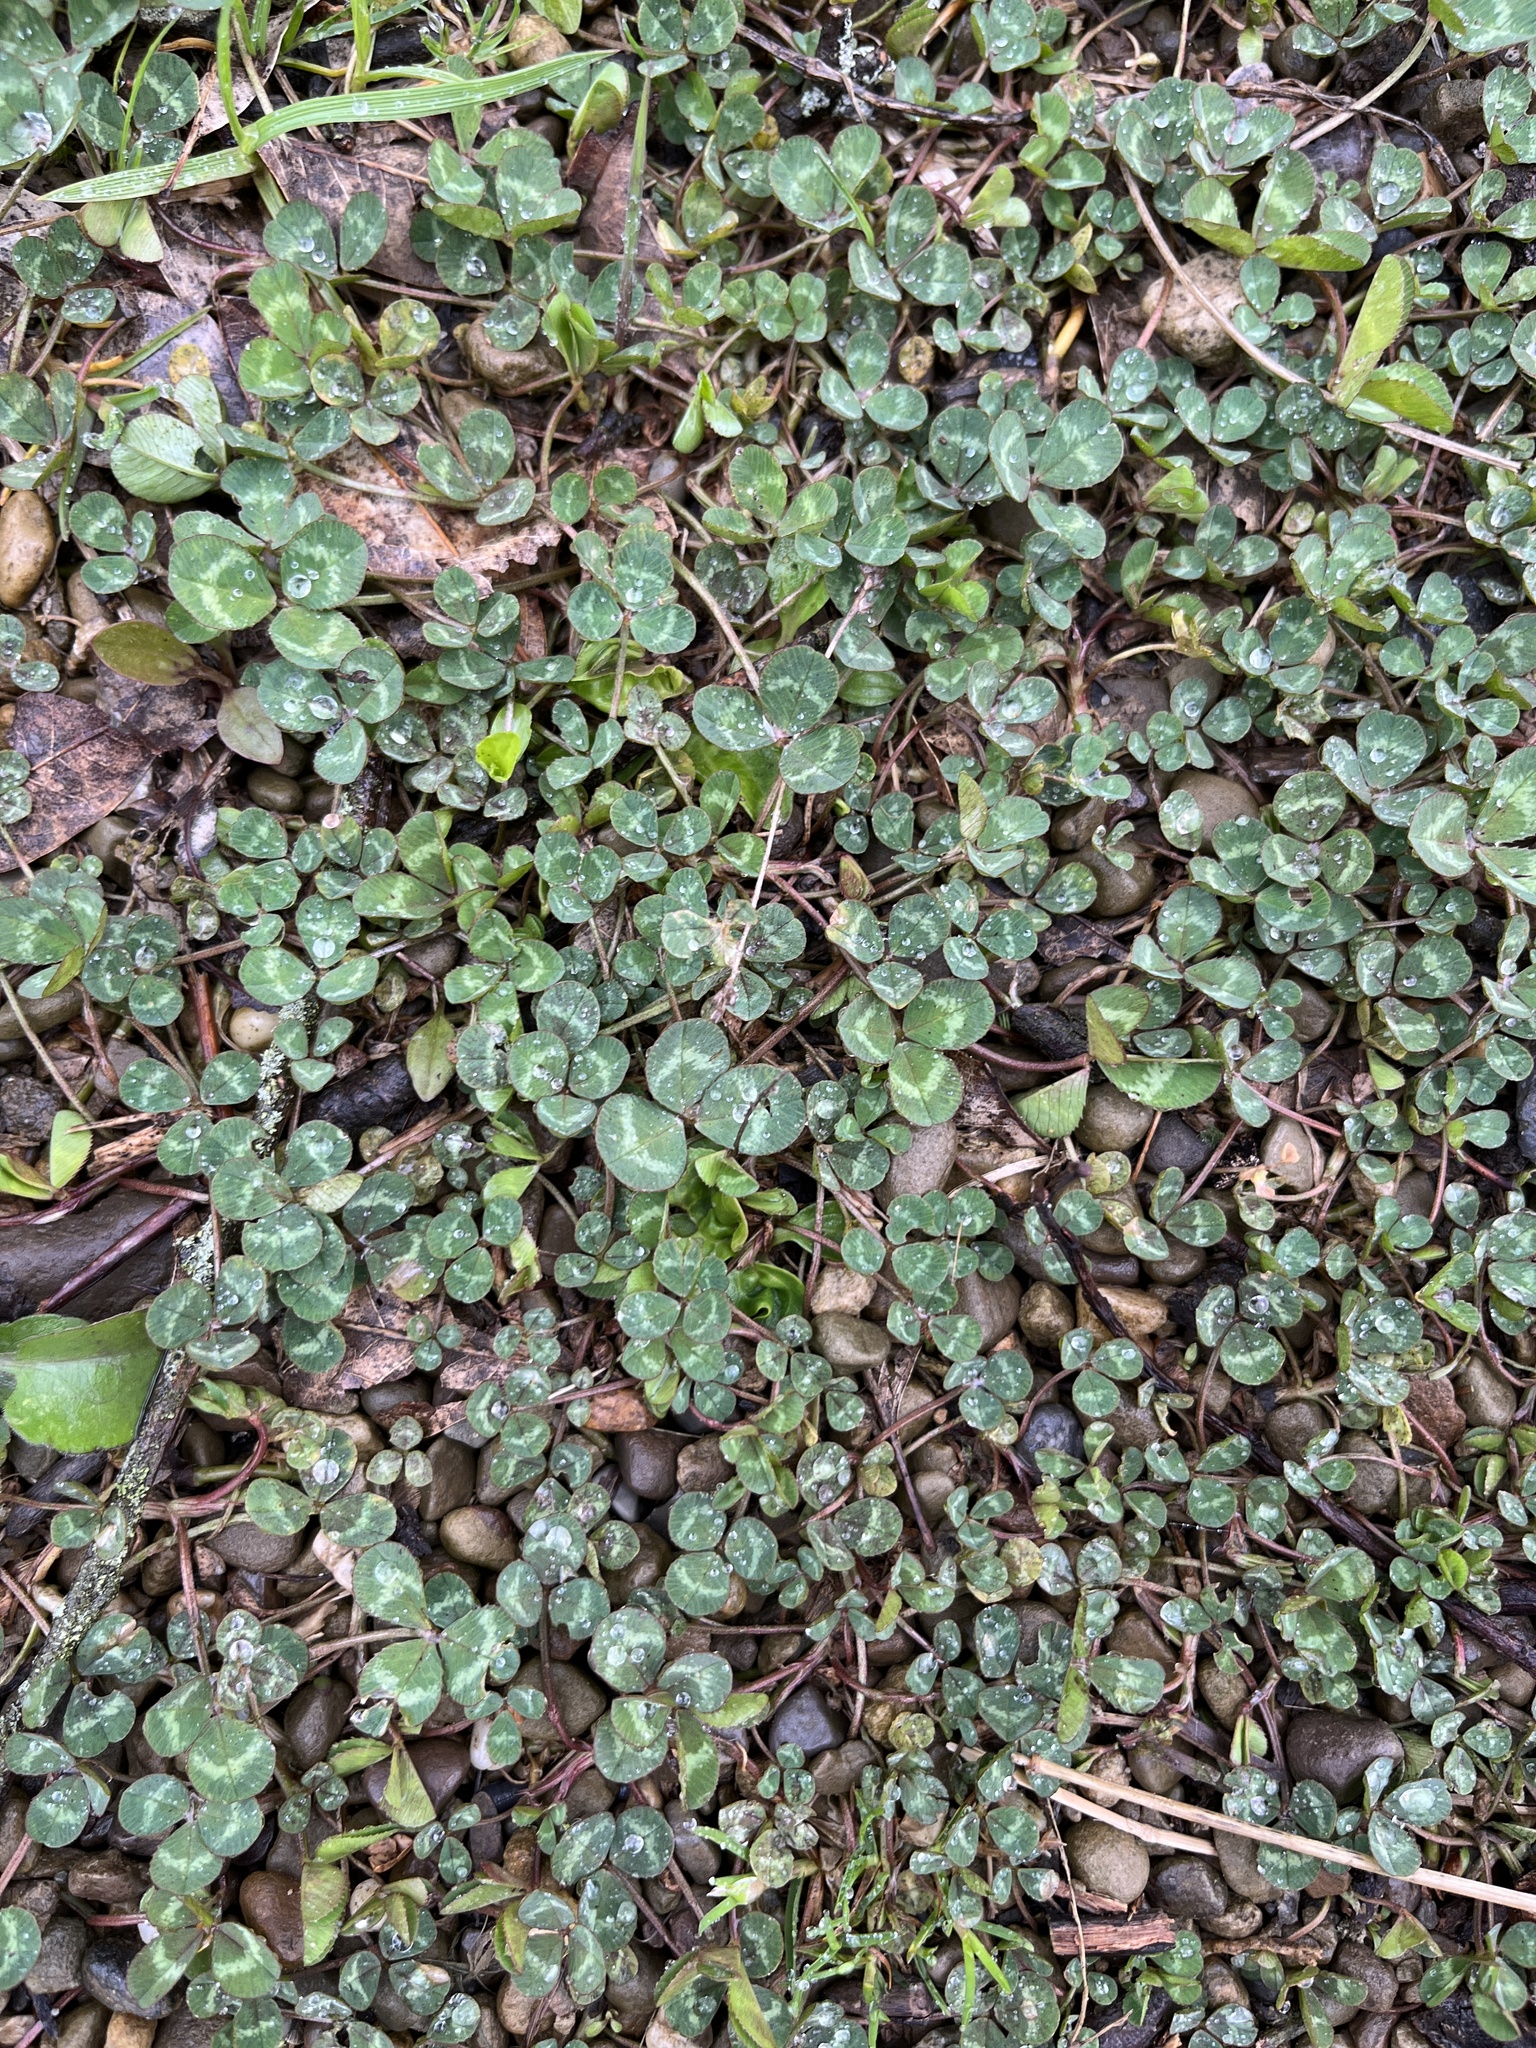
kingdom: Plantae
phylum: Tracheophyta
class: Magnoliopsida
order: Fabales
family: Fabaceae
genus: Trifolium
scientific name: Trifolium repens
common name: White clover
